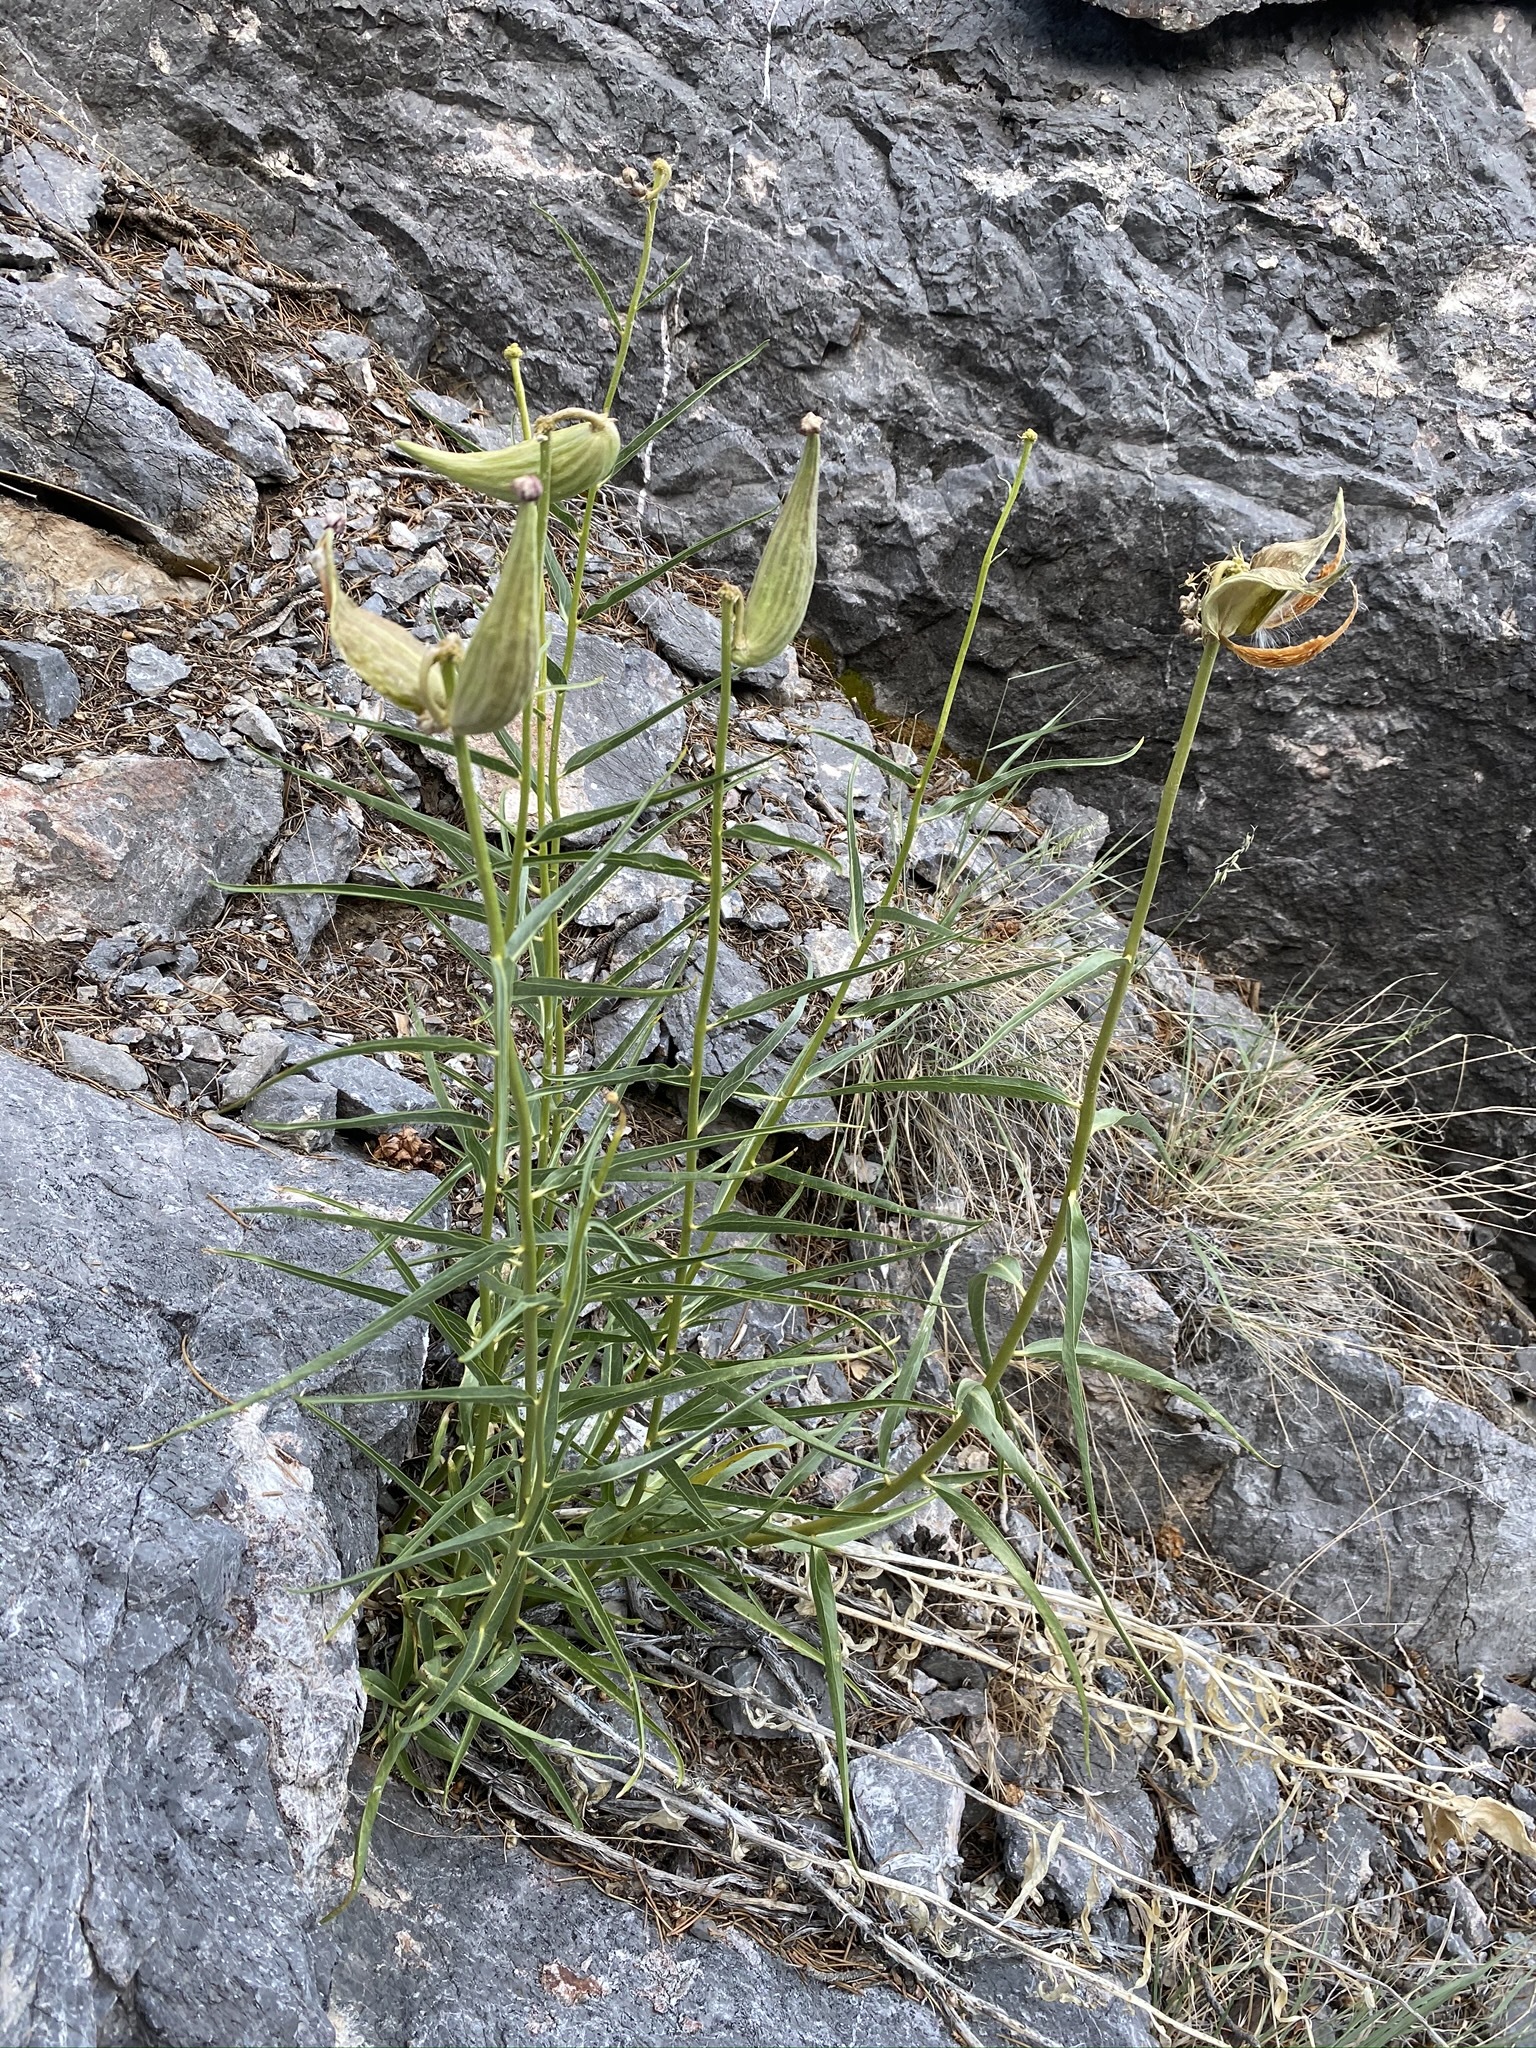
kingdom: Plantae
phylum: Tracheophyta
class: Magnoliopsida
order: Gentianales
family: Apocynaceae
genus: Asclepias
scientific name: Asclepias asperula
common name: Antelope horns
